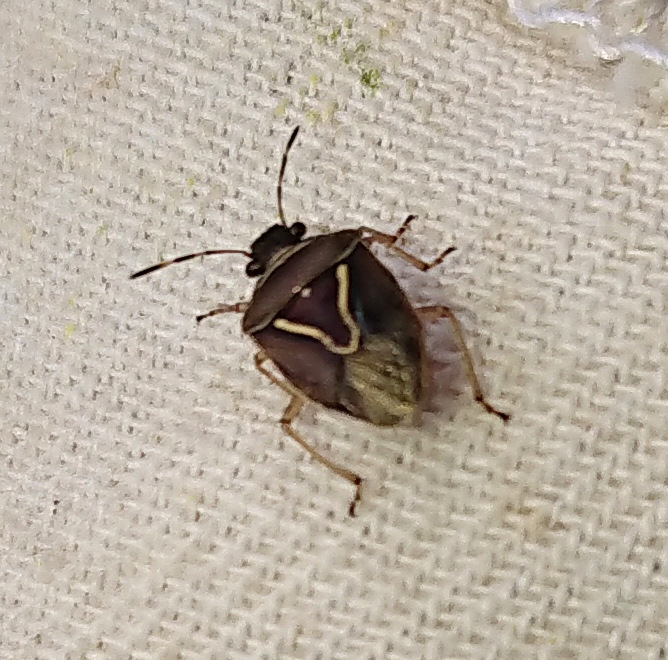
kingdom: Animalia
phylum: Arthropoda
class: Insecta
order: Hemiptera
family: Pentatomidae
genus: Mormidea
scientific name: Mormidea lugens
